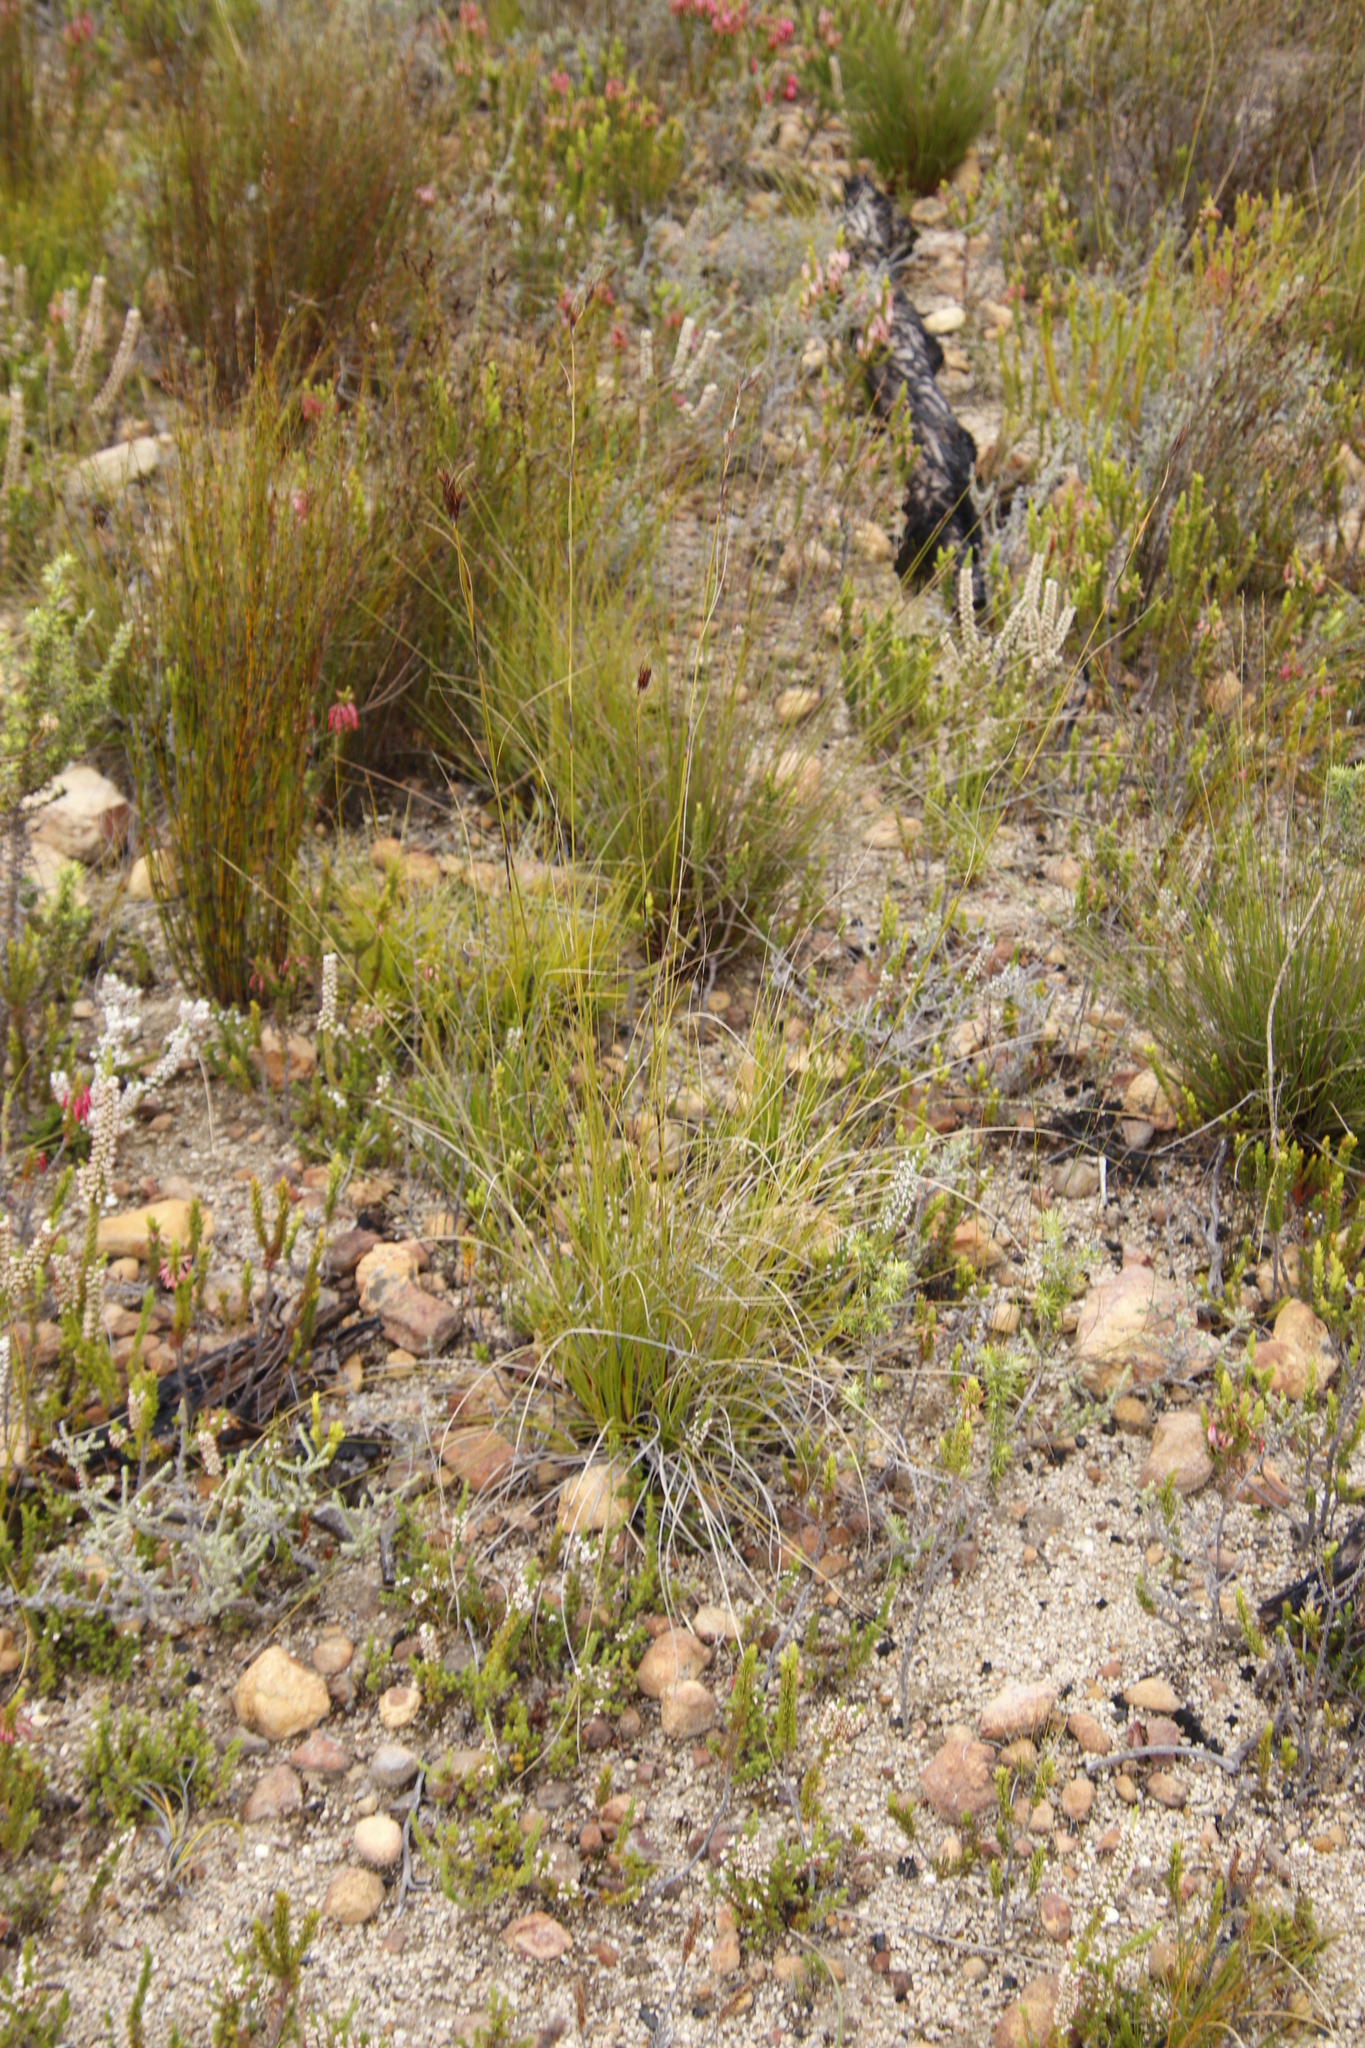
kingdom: Plantae
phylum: Tracheophyta
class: Liliopsida
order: Poales
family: Cyperaceae
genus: Tetraria
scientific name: Tetraria ustulata
